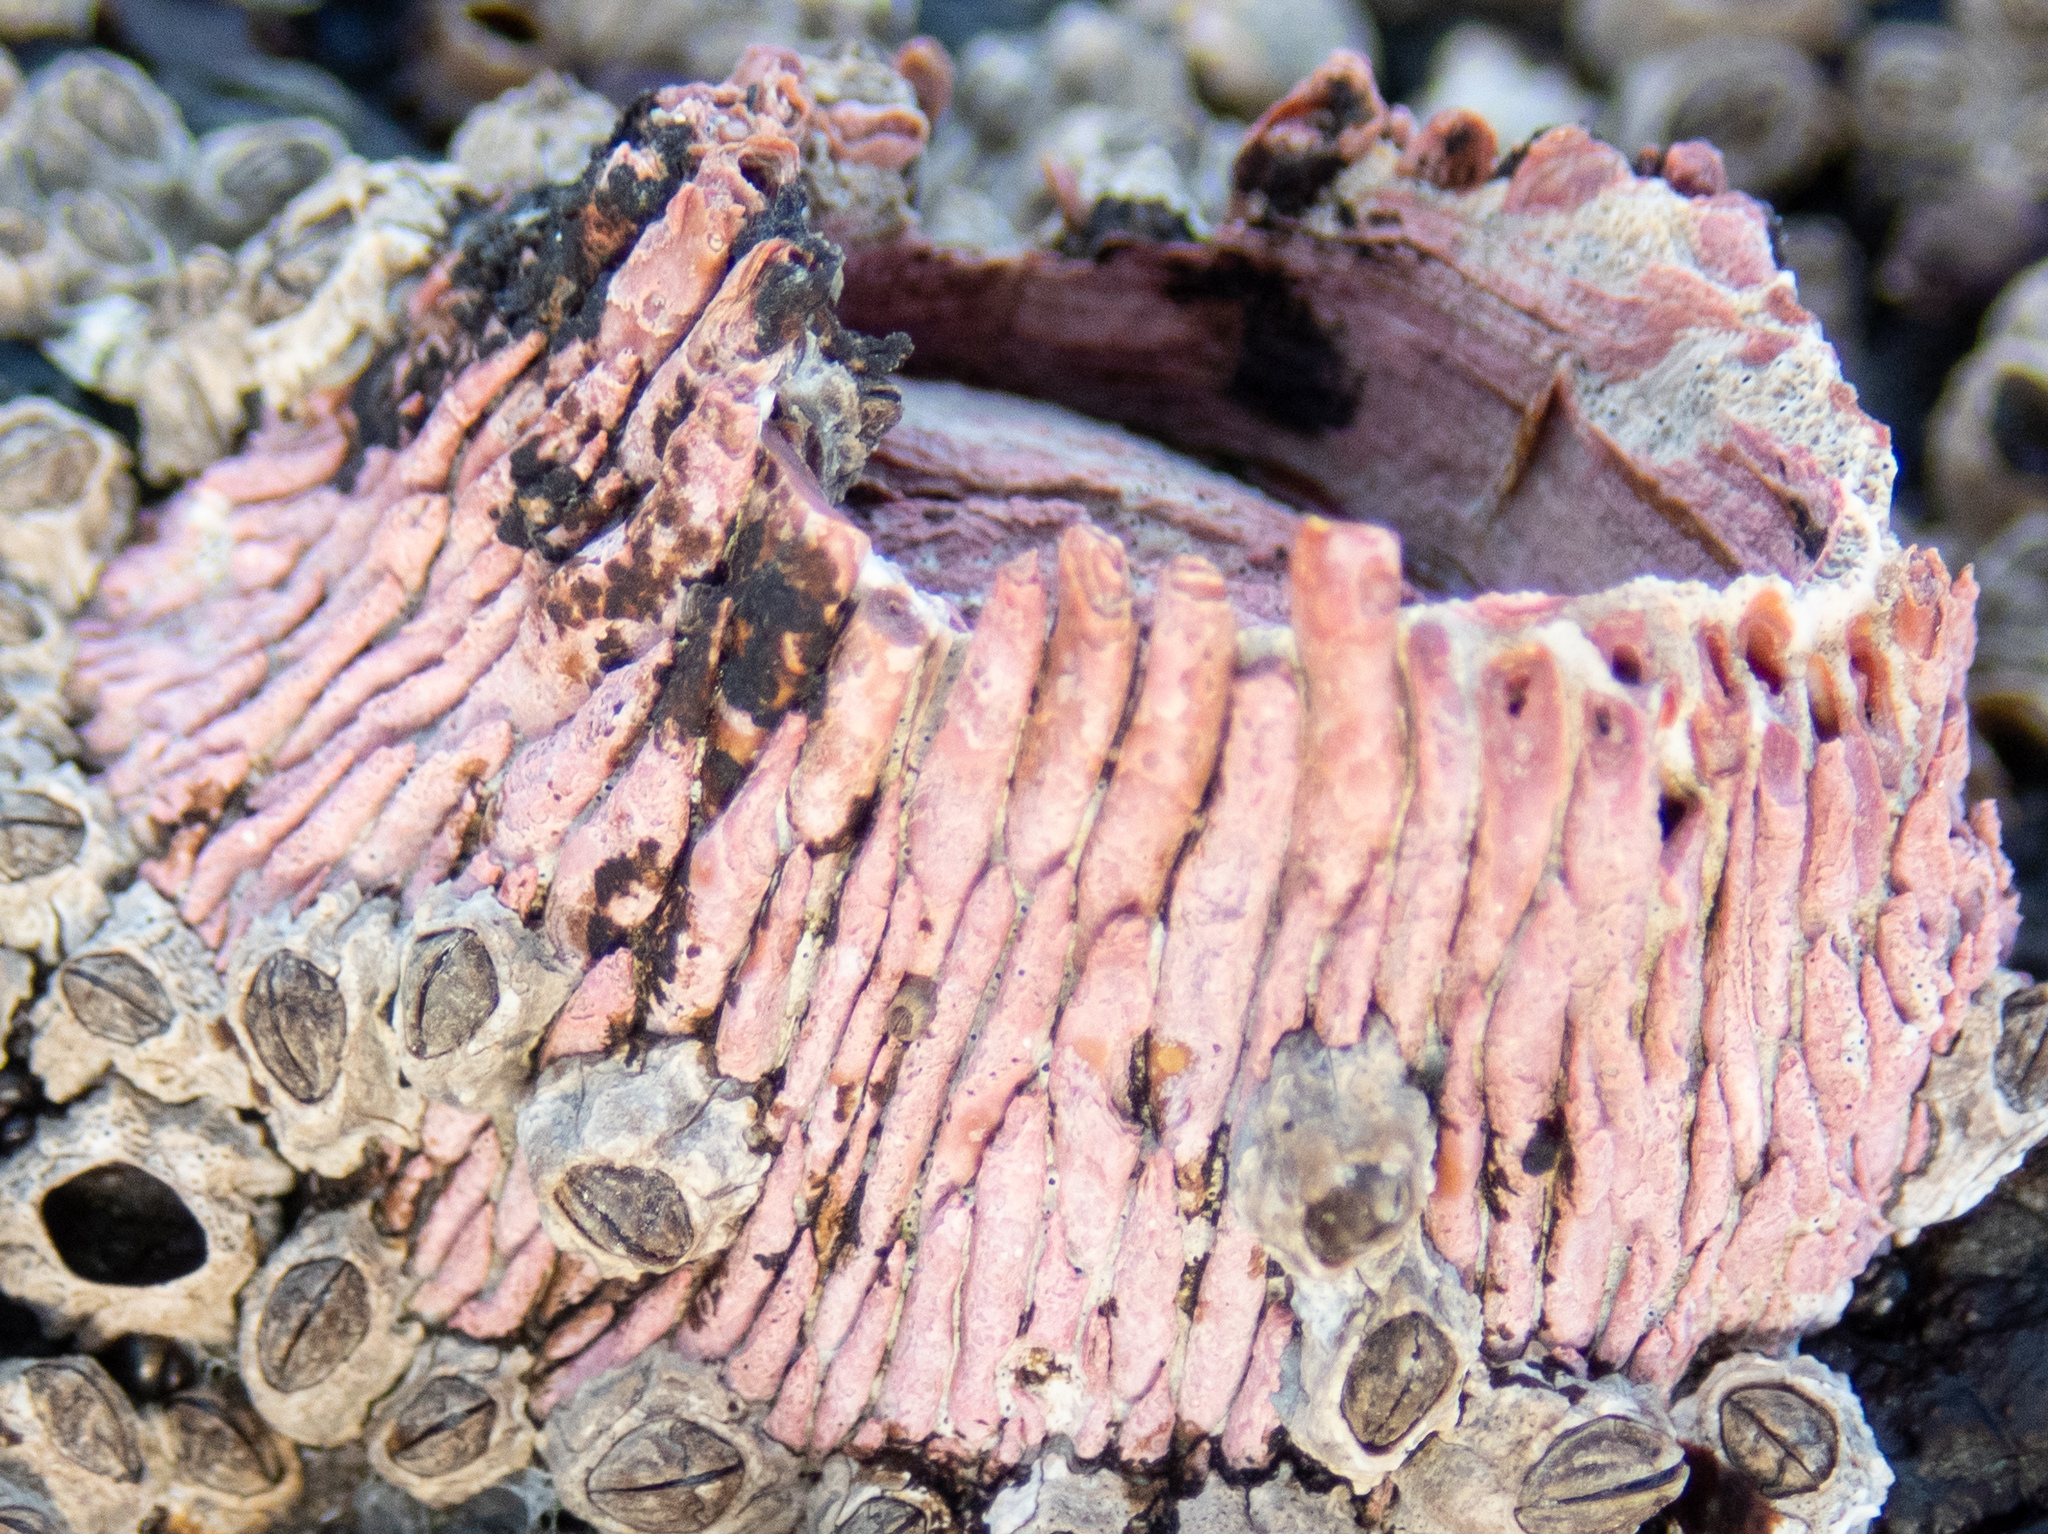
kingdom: Animalia
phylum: Arthropoda
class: Maxillopoda
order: Sessilia
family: Tetraclitidae
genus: Tetraclita
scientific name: Tetraclita rubescens
